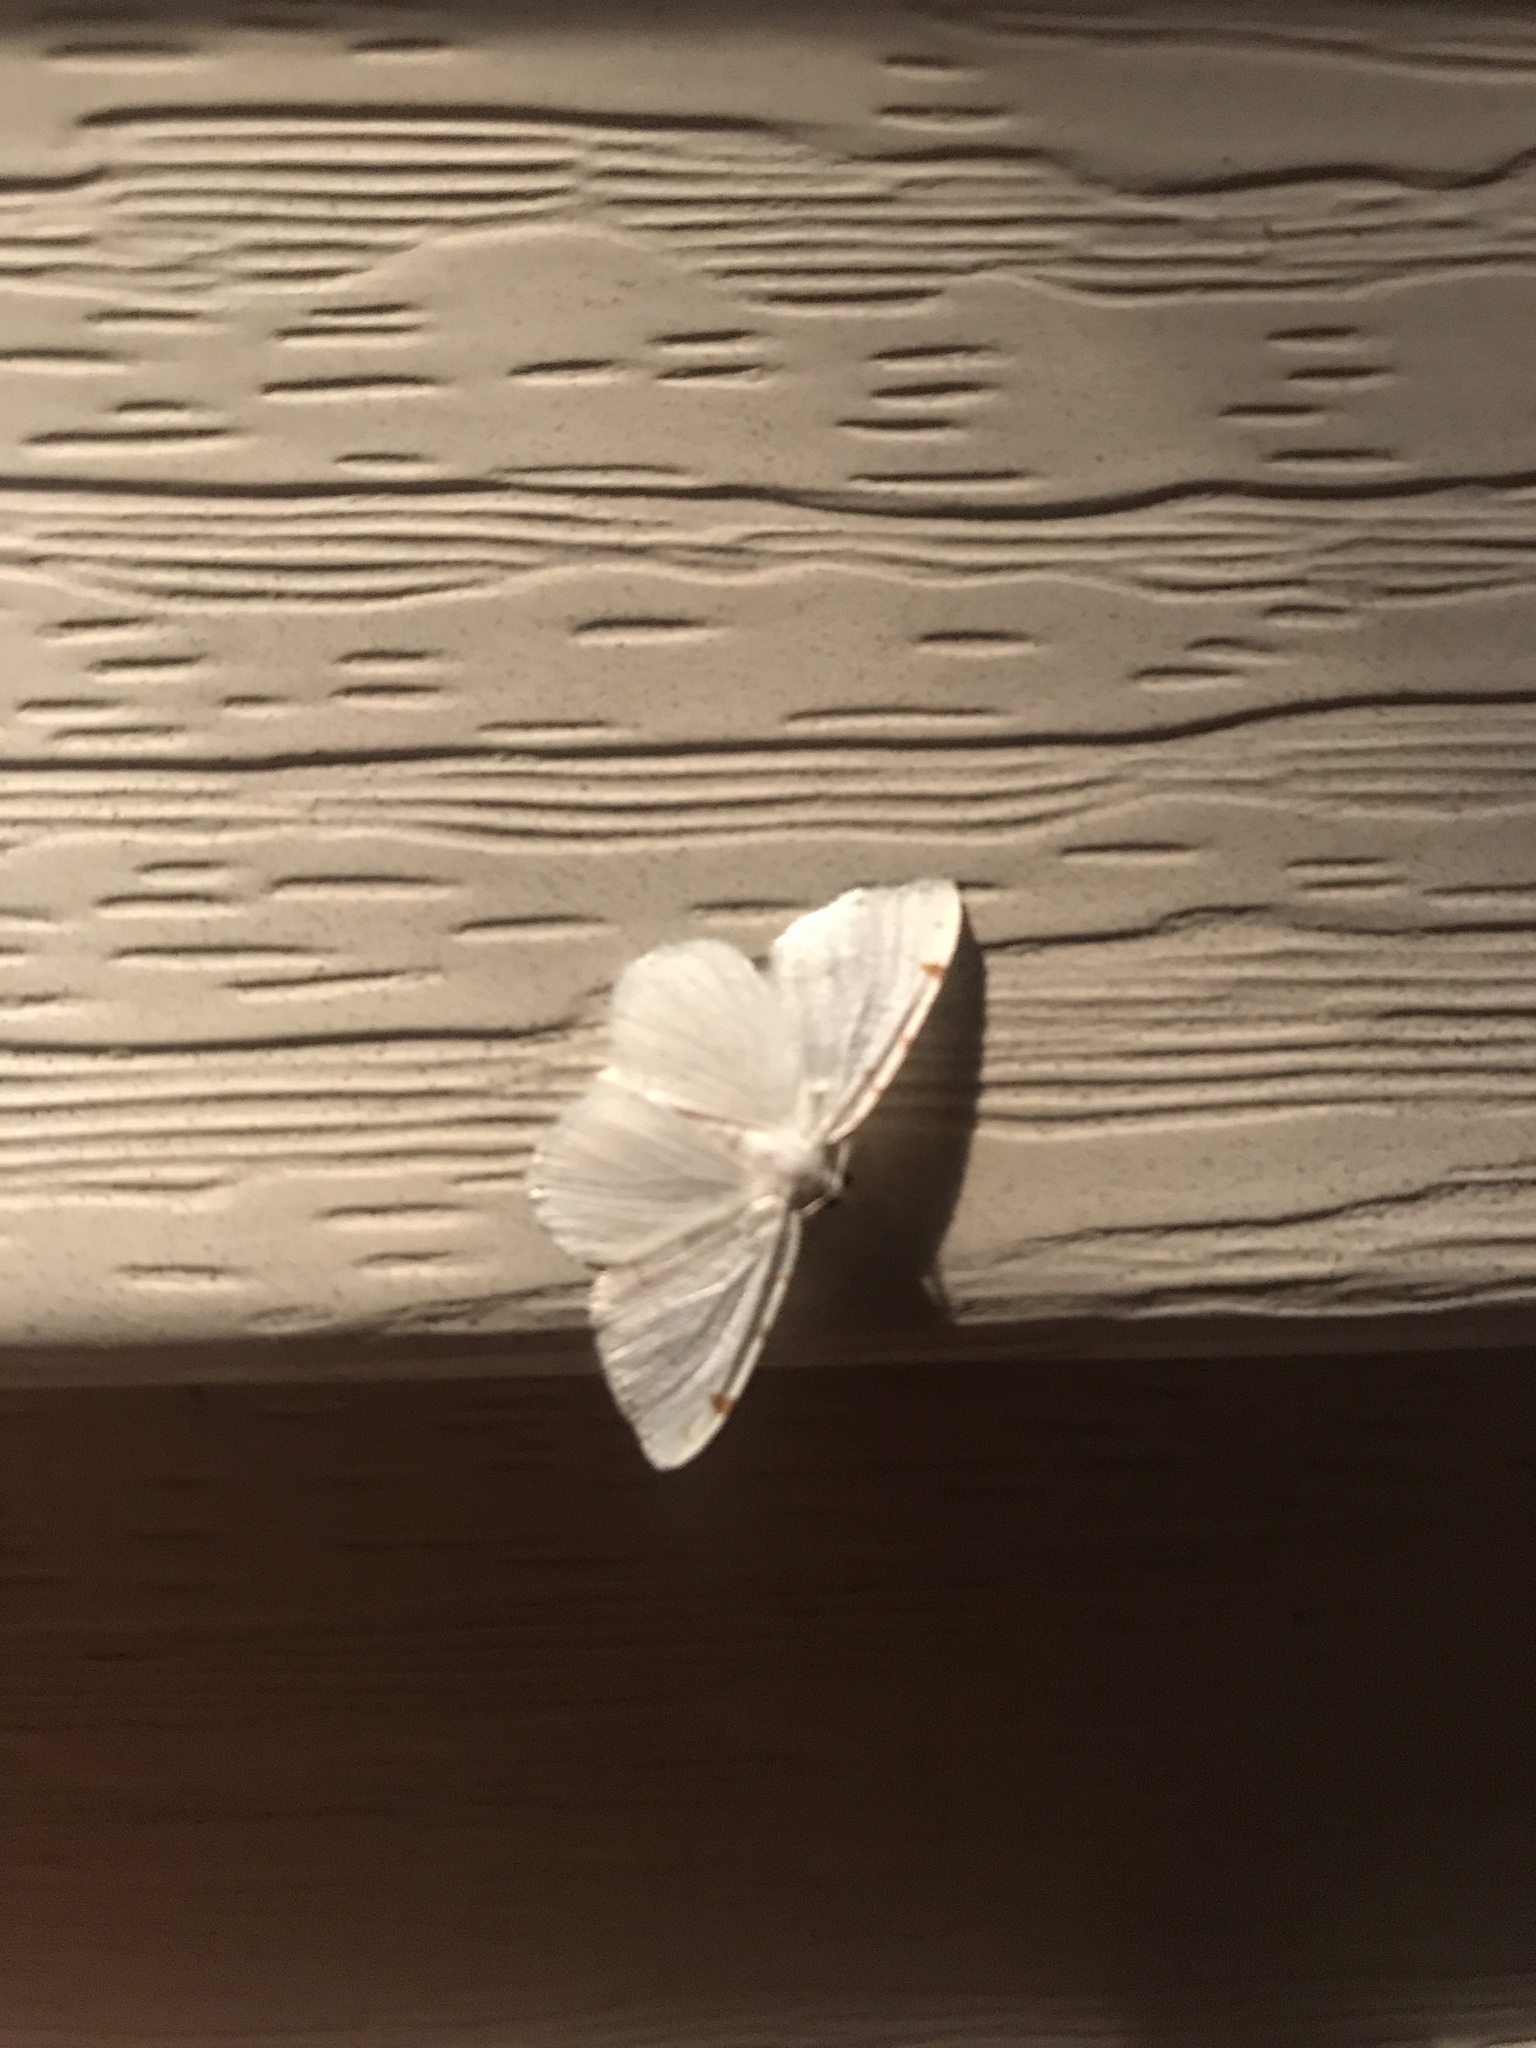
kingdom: Animalia
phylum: Arthropoda
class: Insecta
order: Lepidoptera
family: Geometridae
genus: Macaria
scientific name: Macaria pustularia
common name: Lesser maple spanworm moth
